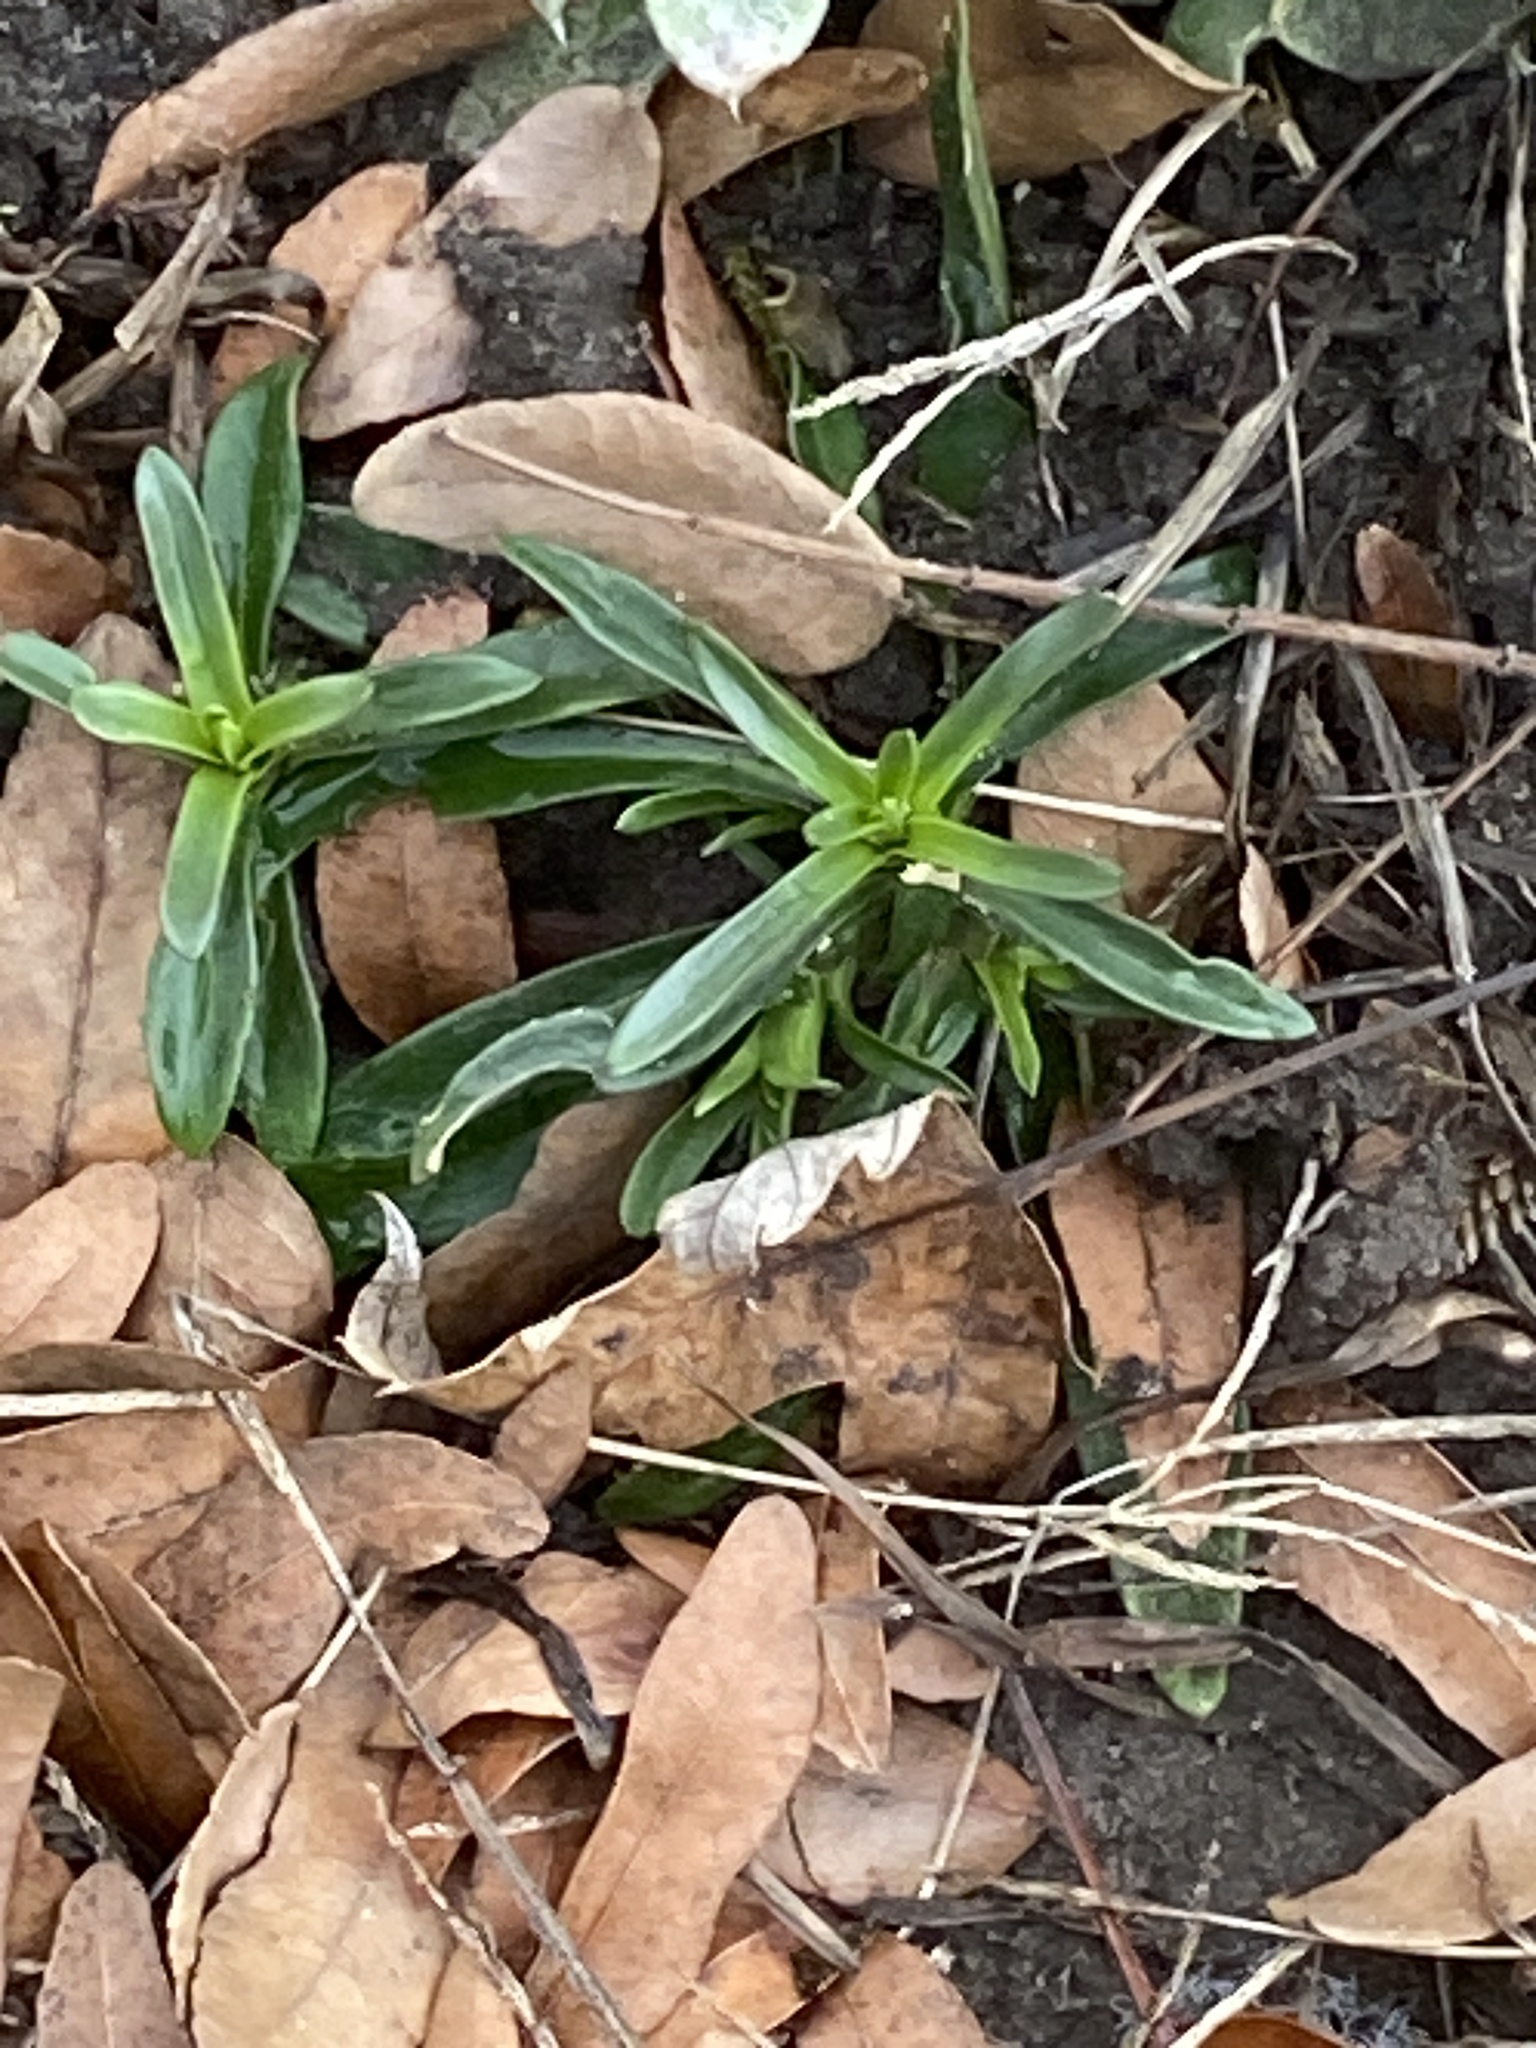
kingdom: Plantae
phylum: Tracheophyta
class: Magnoliopsida
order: Caryophyllales
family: Caryophyllaceae
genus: Dianthus
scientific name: Dianthus armeria
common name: Deptford pink
